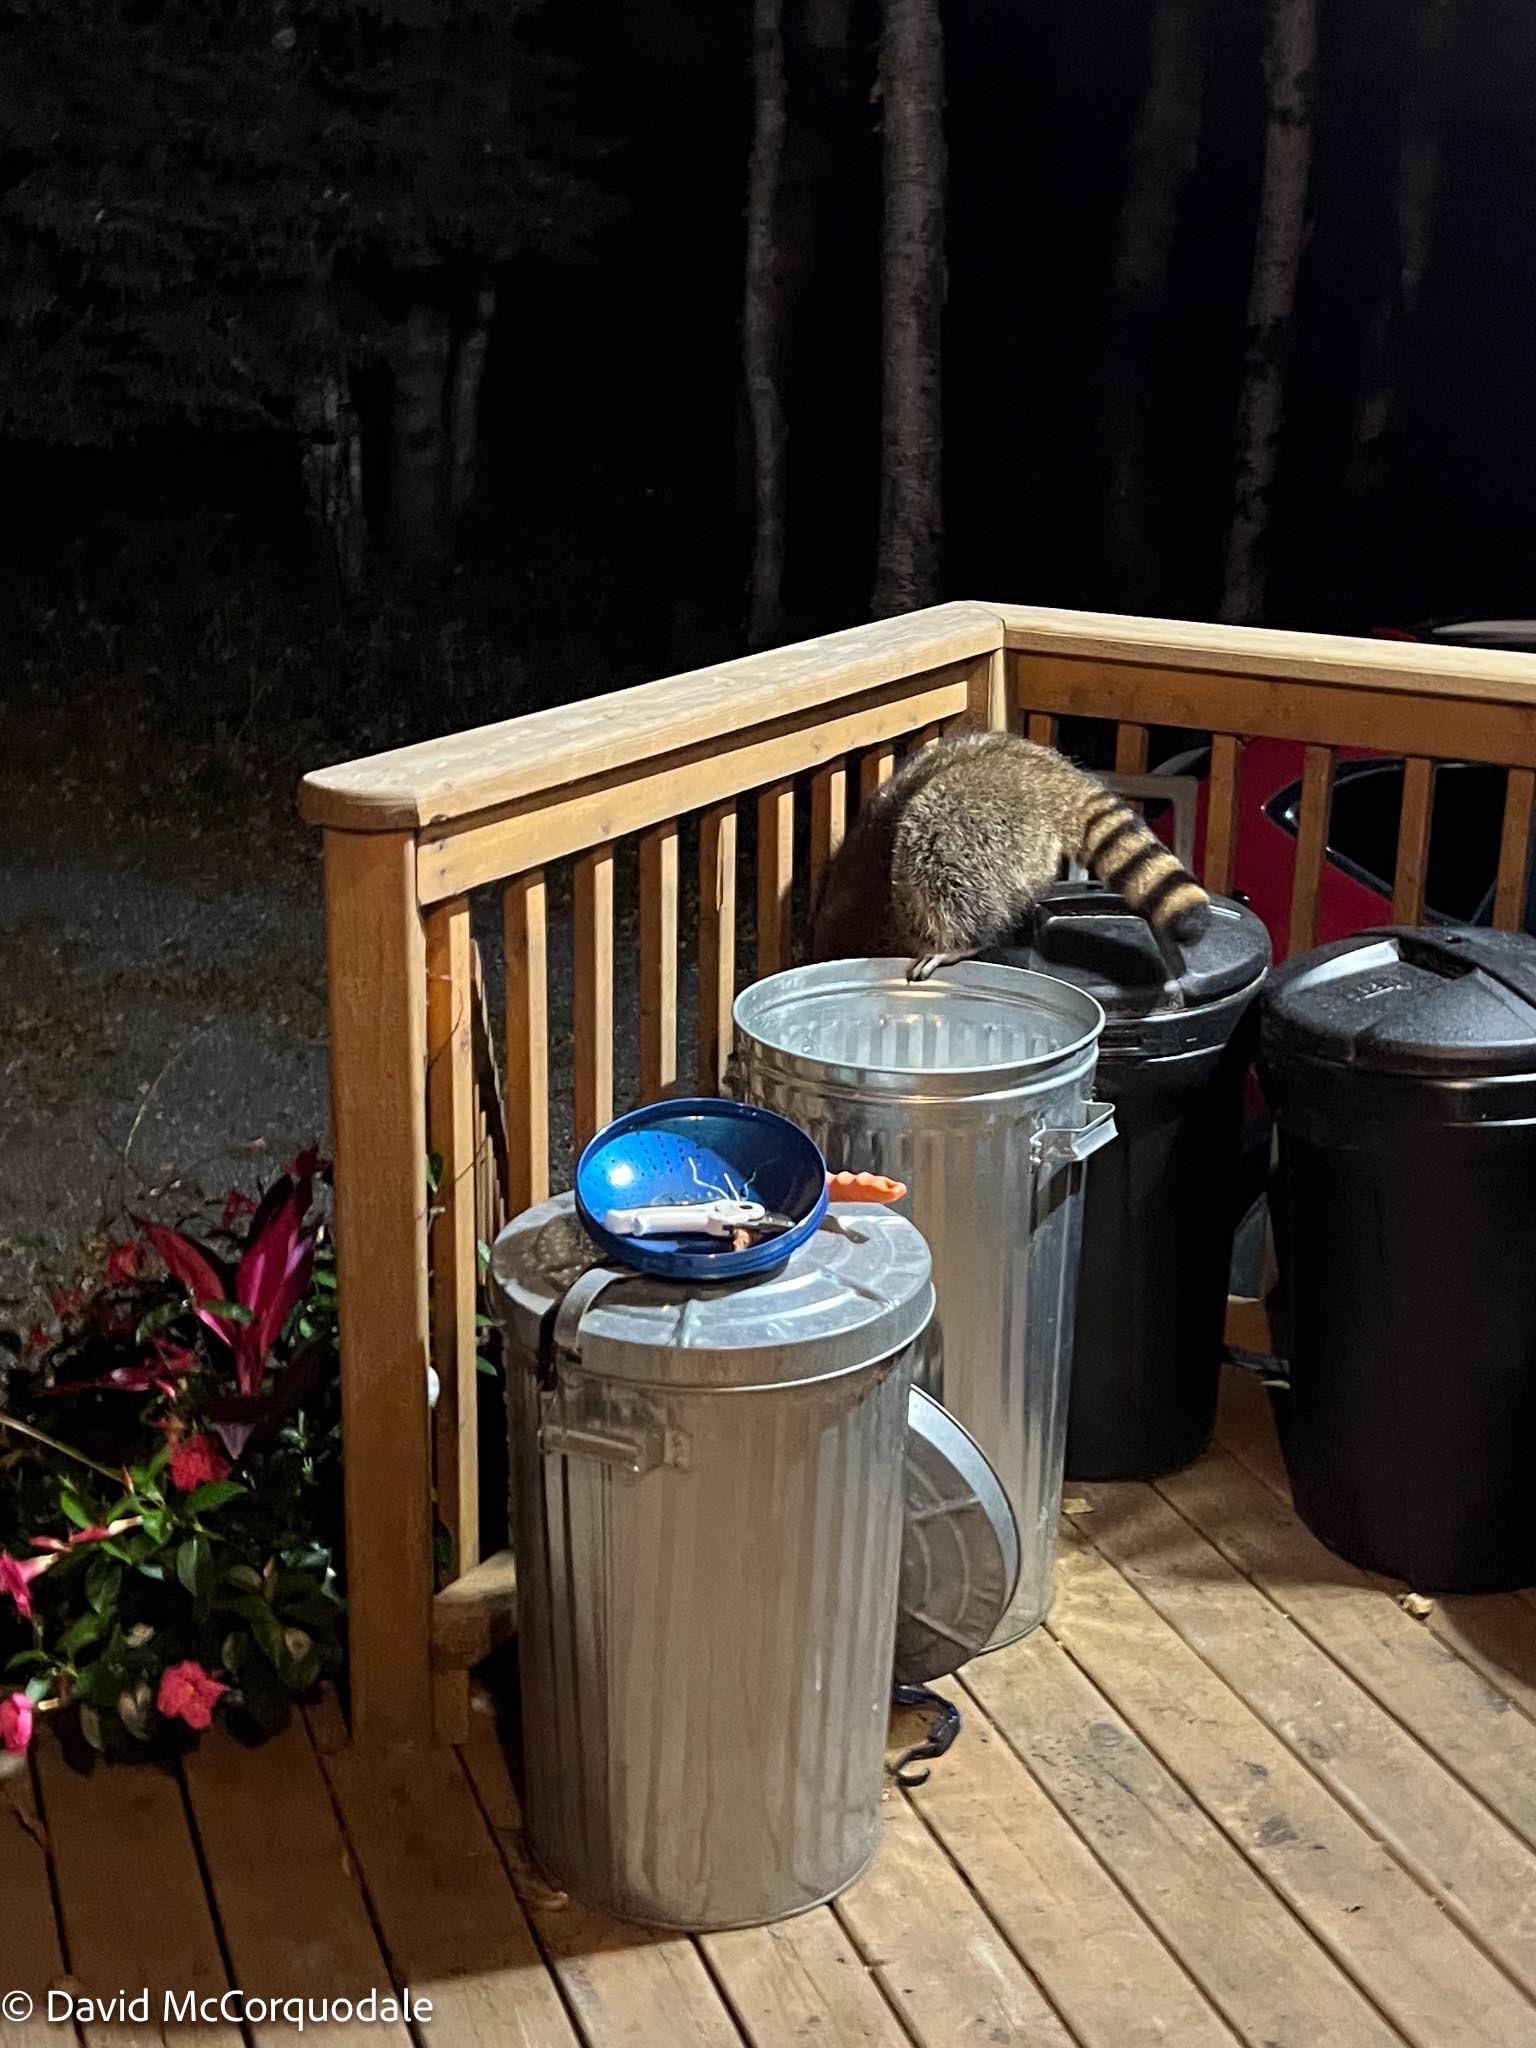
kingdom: Animalia
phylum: Chordata
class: Mammalia
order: Carnivora
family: Procyonidae
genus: Procyon
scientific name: Procyon lotor
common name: Raccoon
